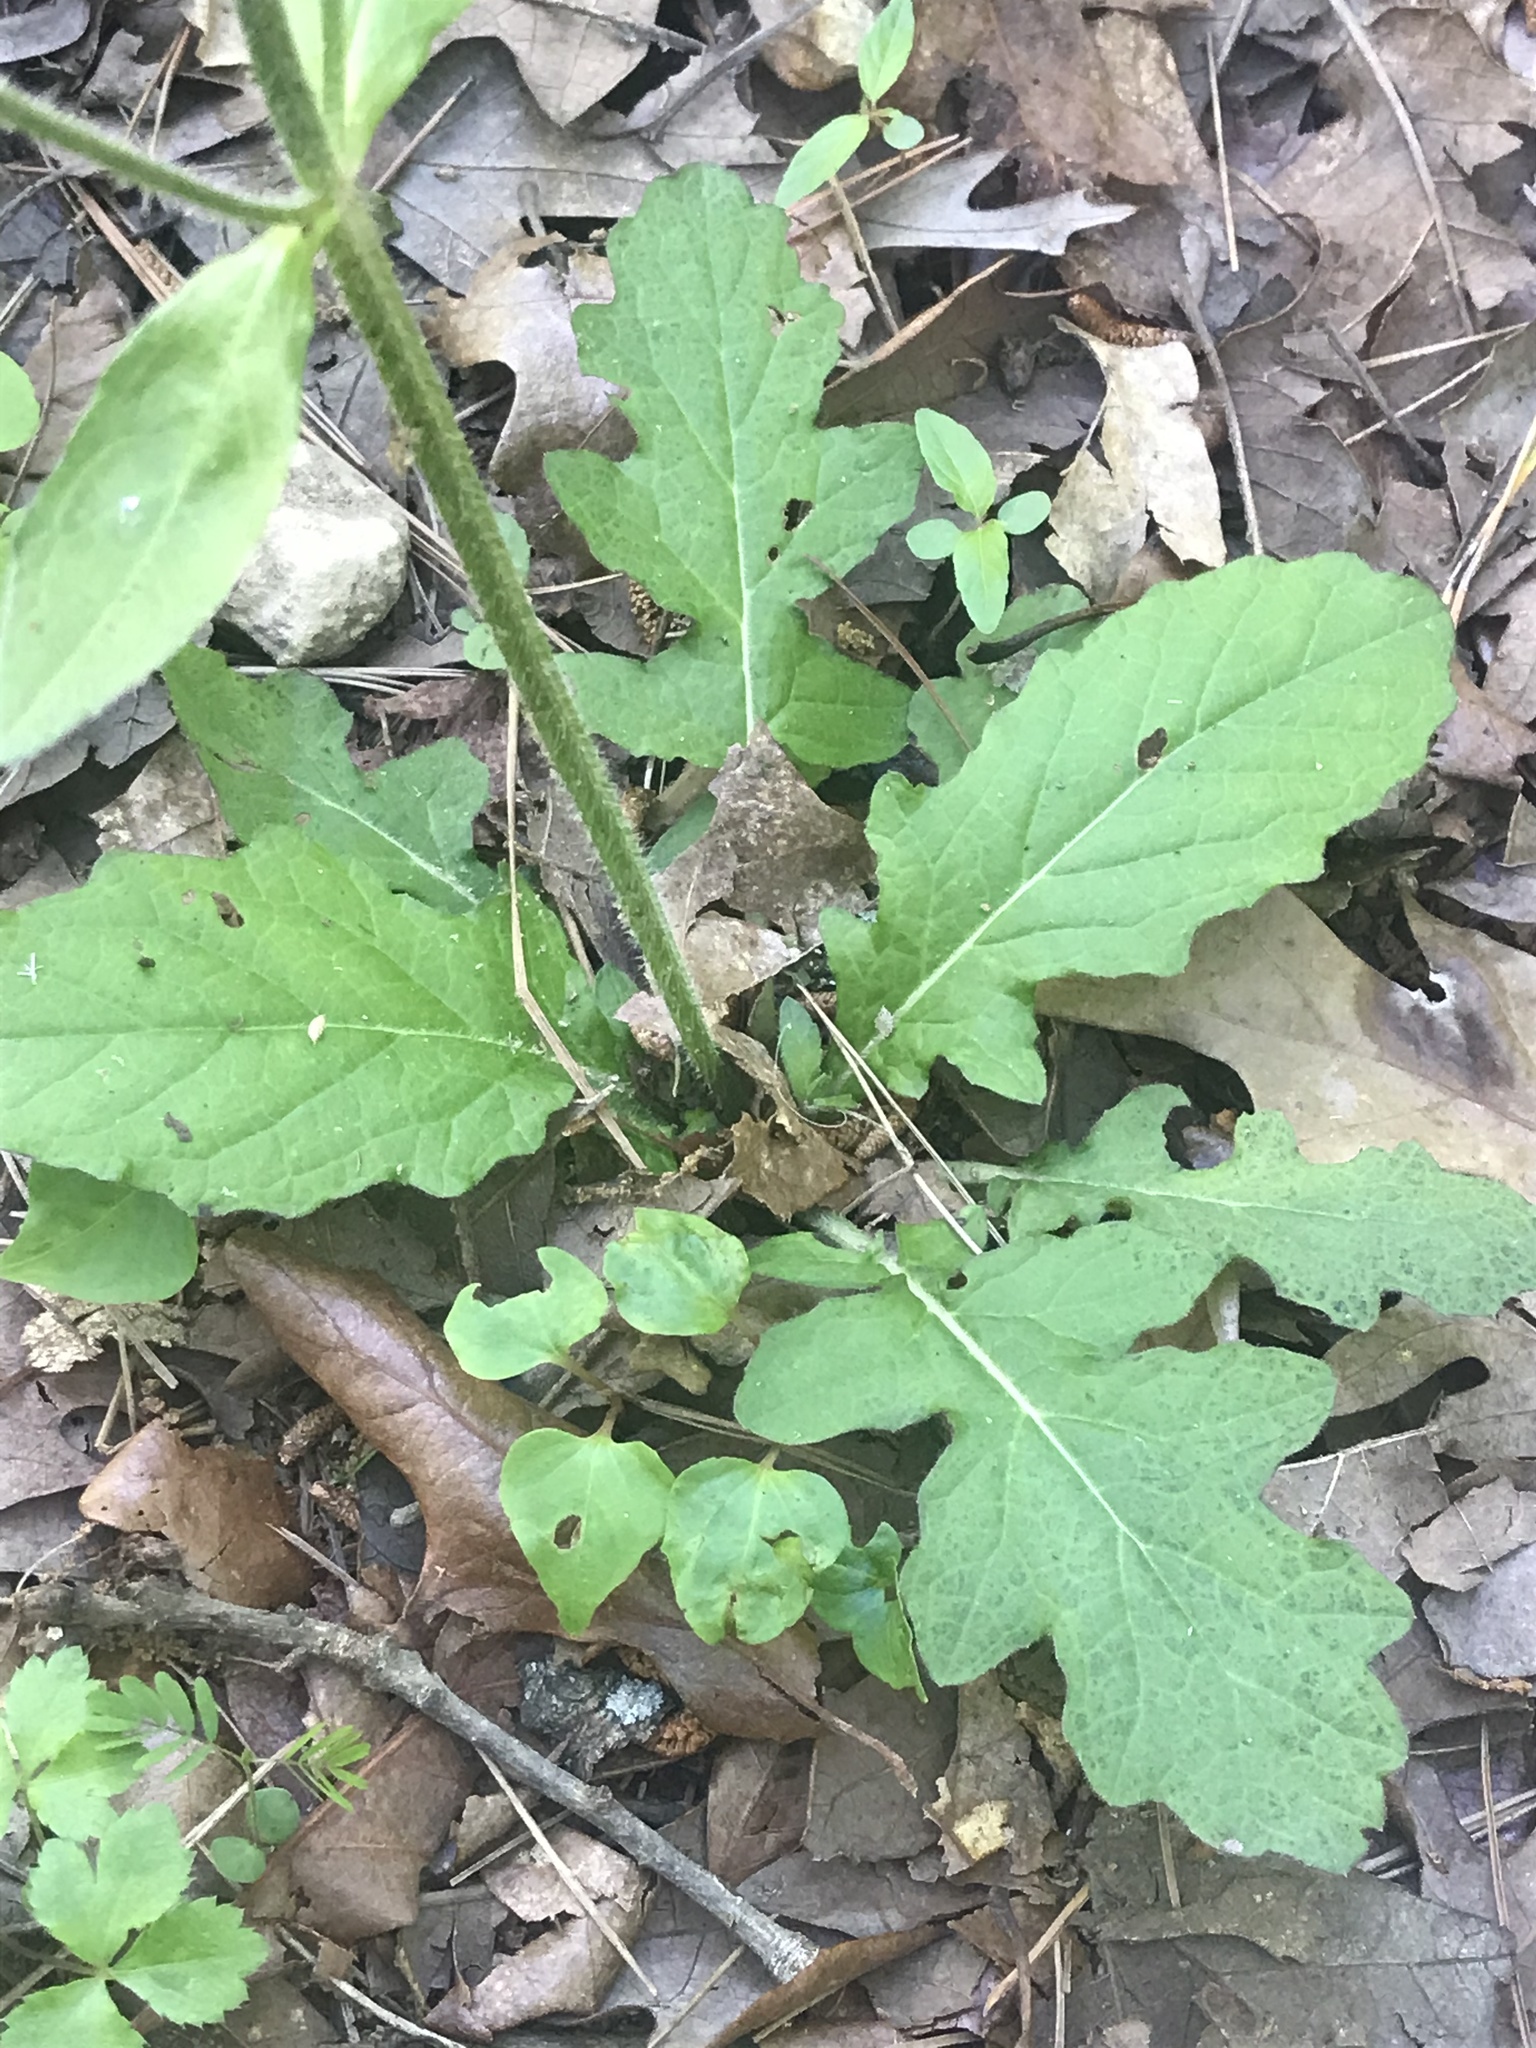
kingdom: Plantae
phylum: Tracheophyta
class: Magnoliopsida
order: Lamiales
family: Lamiaceae
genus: Salvia
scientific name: Salvia lyrata
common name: Cancerweed
